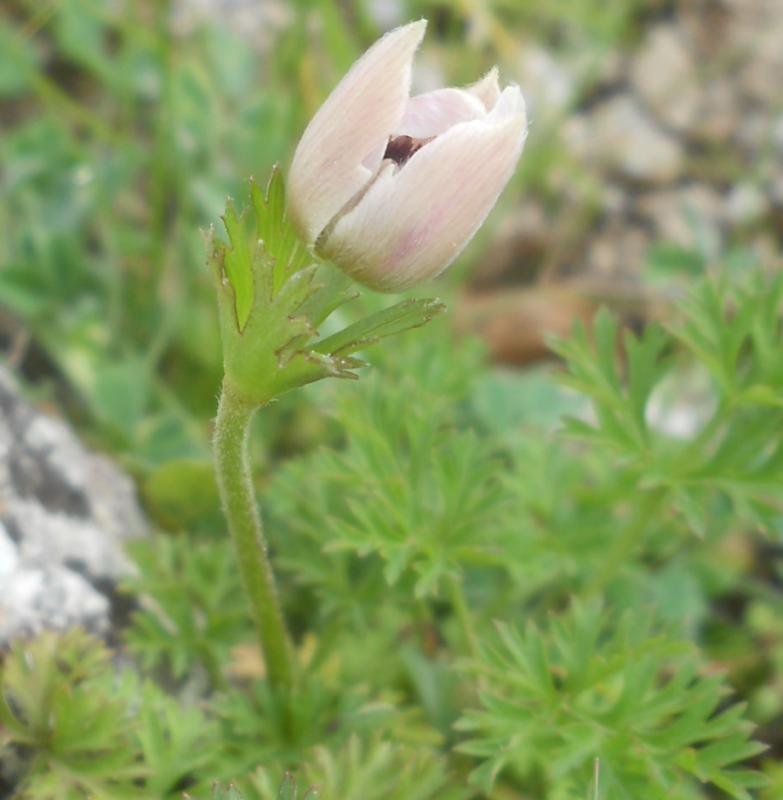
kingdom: Plantae
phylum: Tracheophyta
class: Magnoliopsida
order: Ranunculales
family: Ranunculaceae
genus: Anemone
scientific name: Anemone coronaria
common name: Poppy anemone
